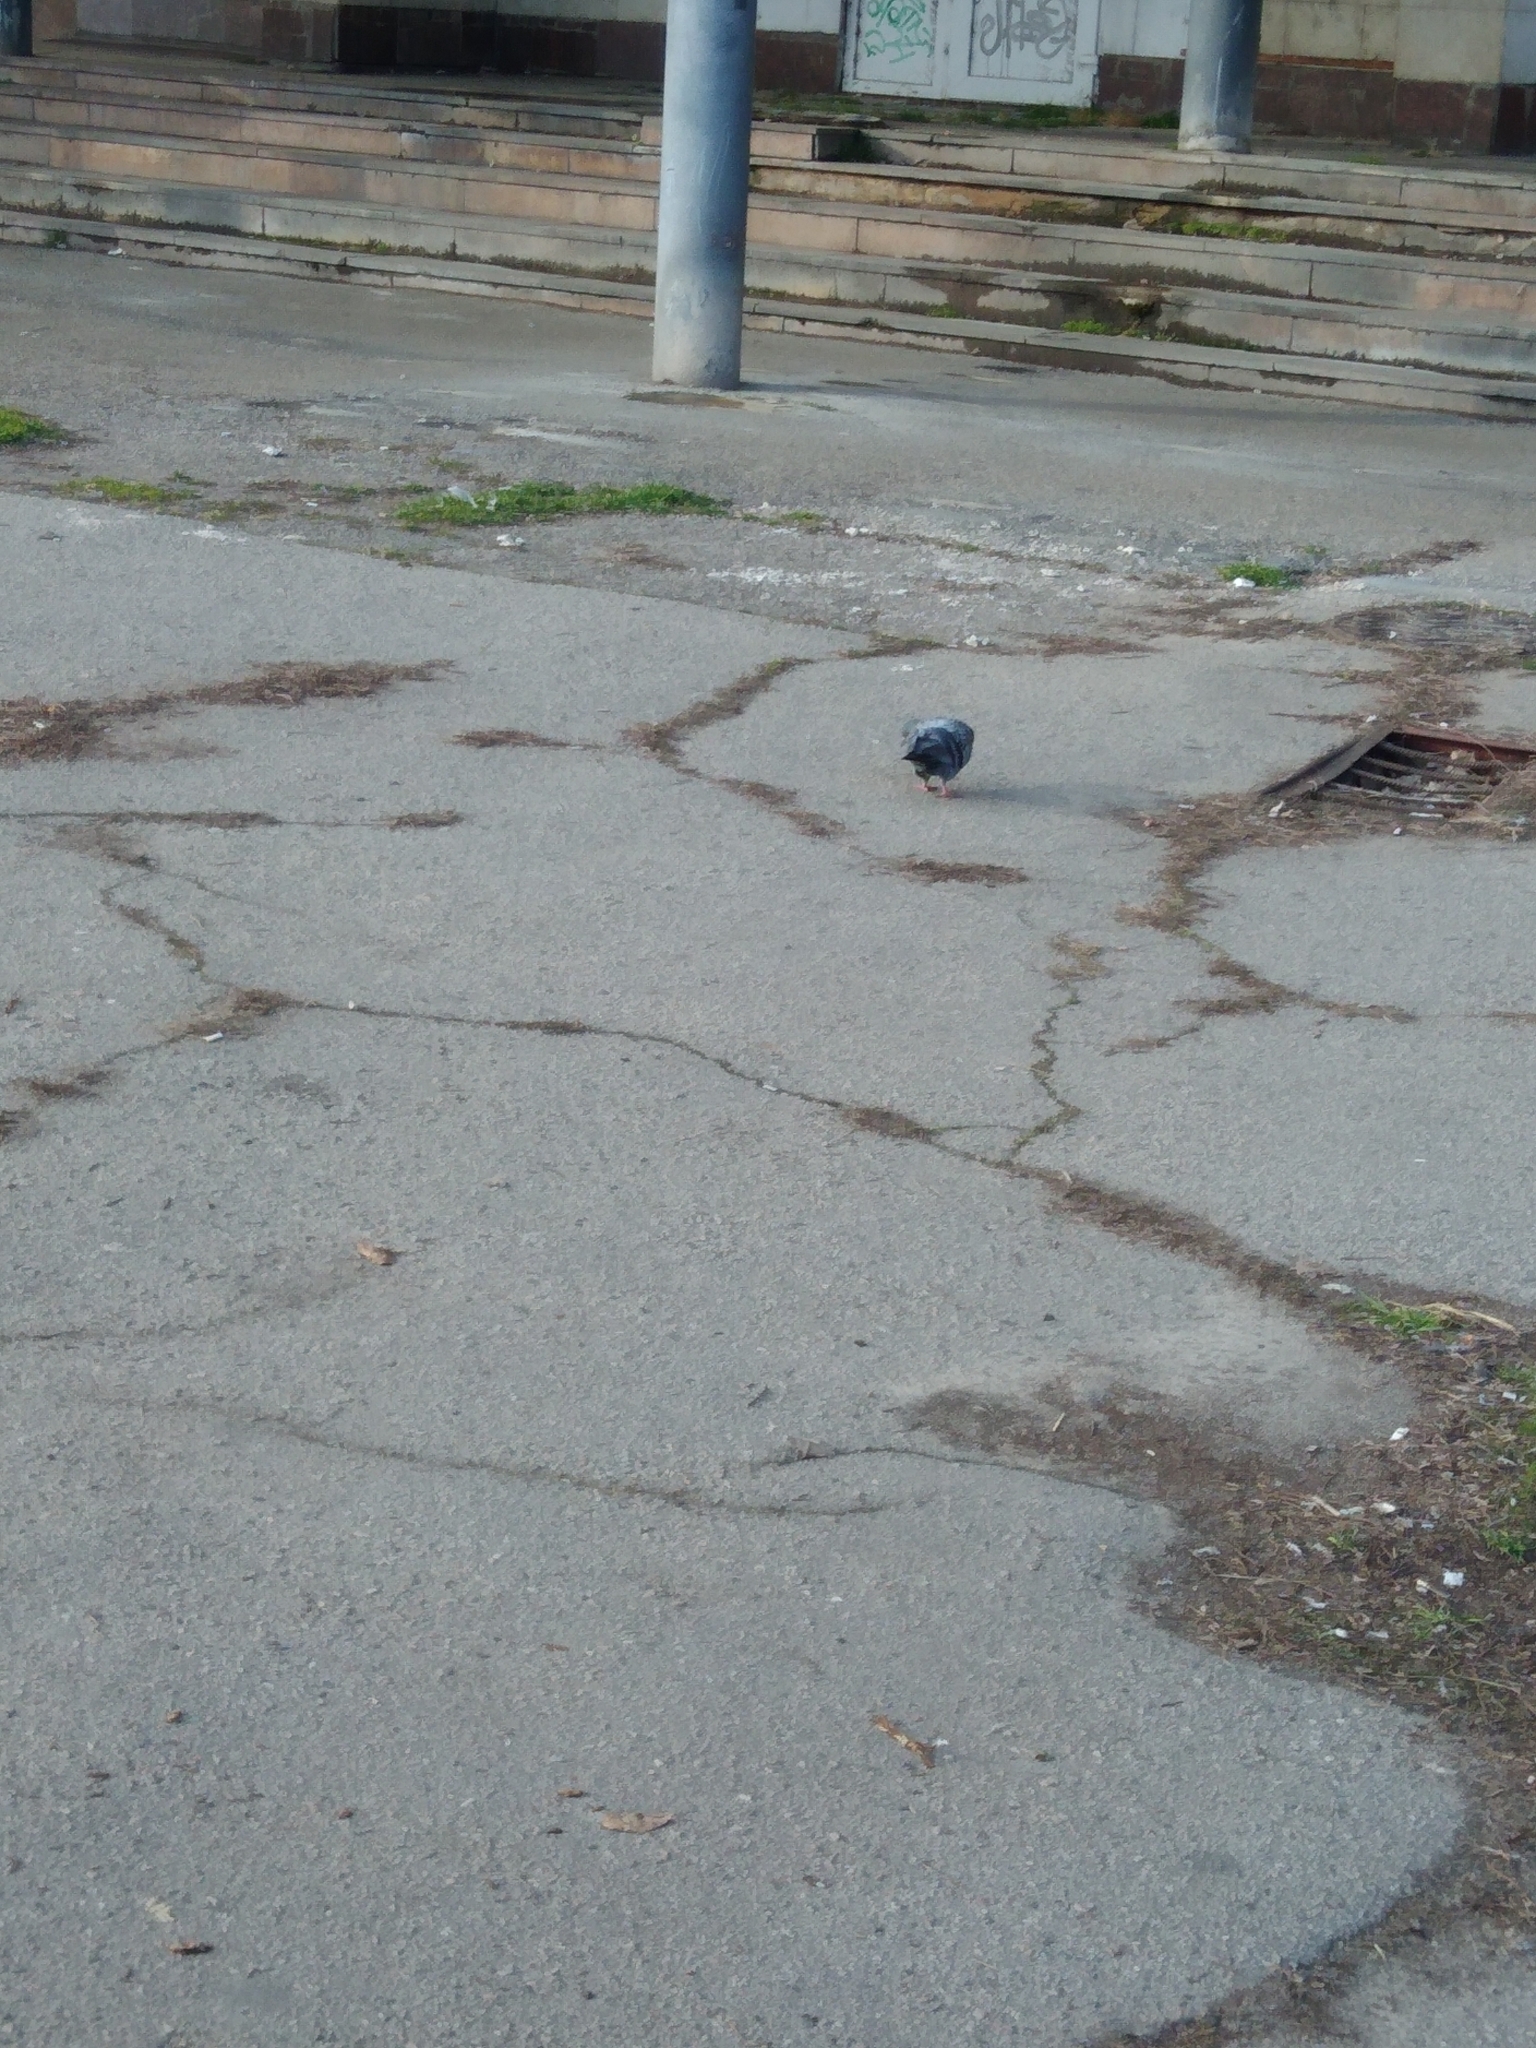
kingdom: Animalia
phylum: Chordata
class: Aves
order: Columbiformes
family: Columbidae
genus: Columba
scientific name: Columba livia
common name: Rock pigeon
